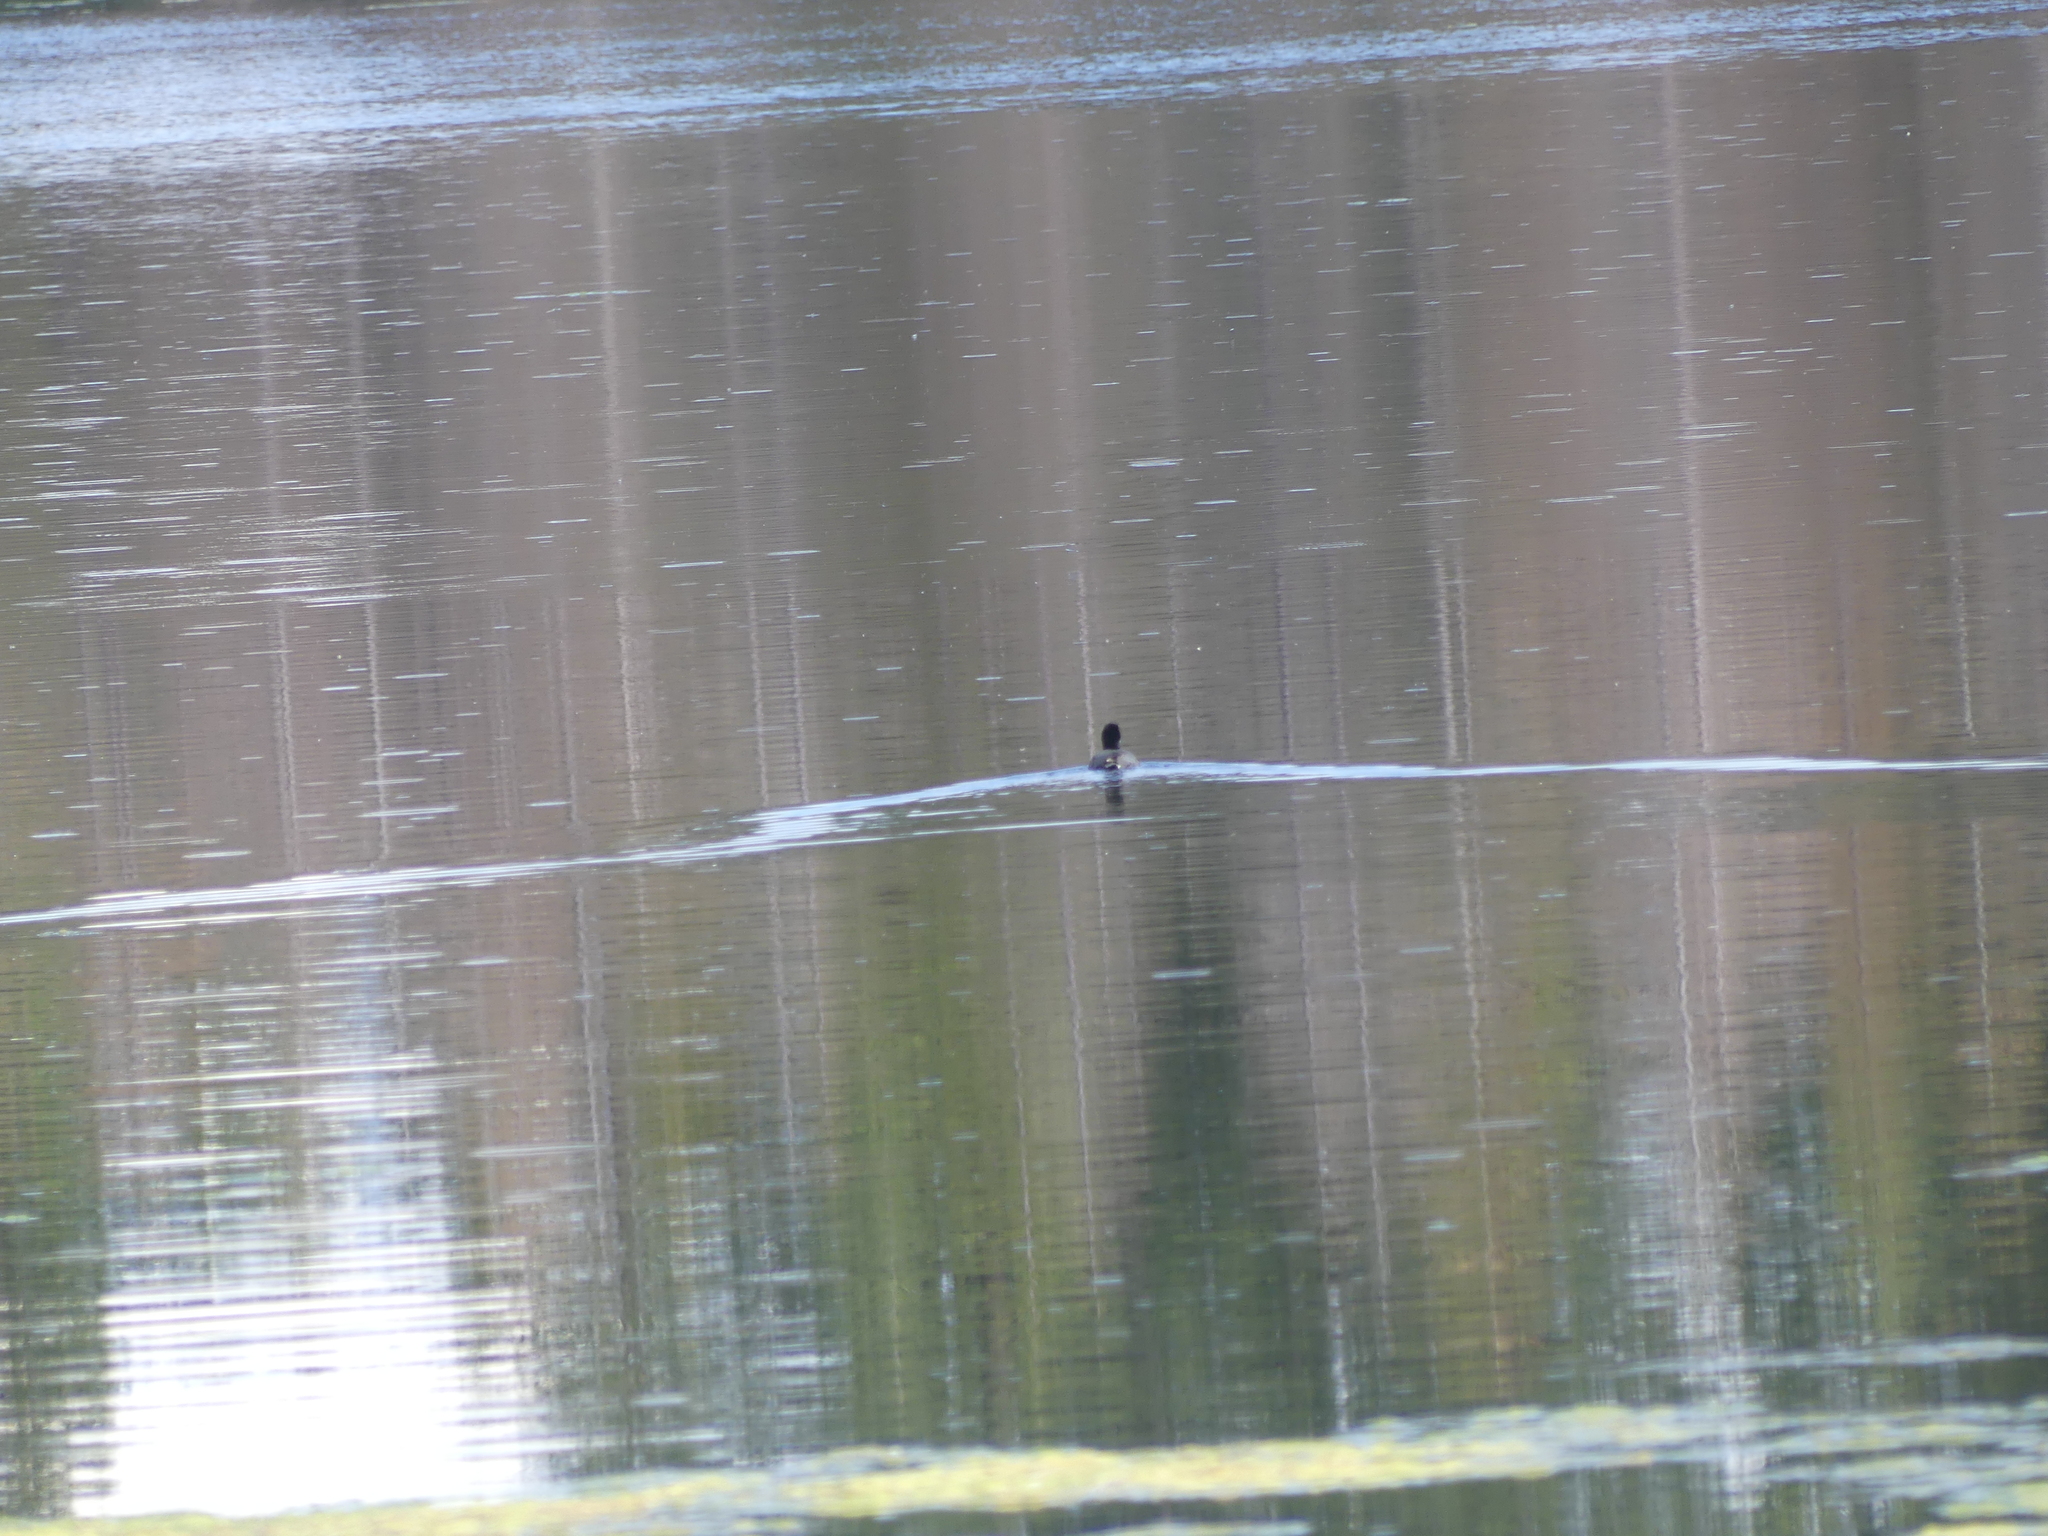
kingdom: Animalia
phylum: Chordata
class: Aves
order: Gruiformes
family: Rallidae
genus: Fulica
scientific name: Fulica americana
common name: American coot
